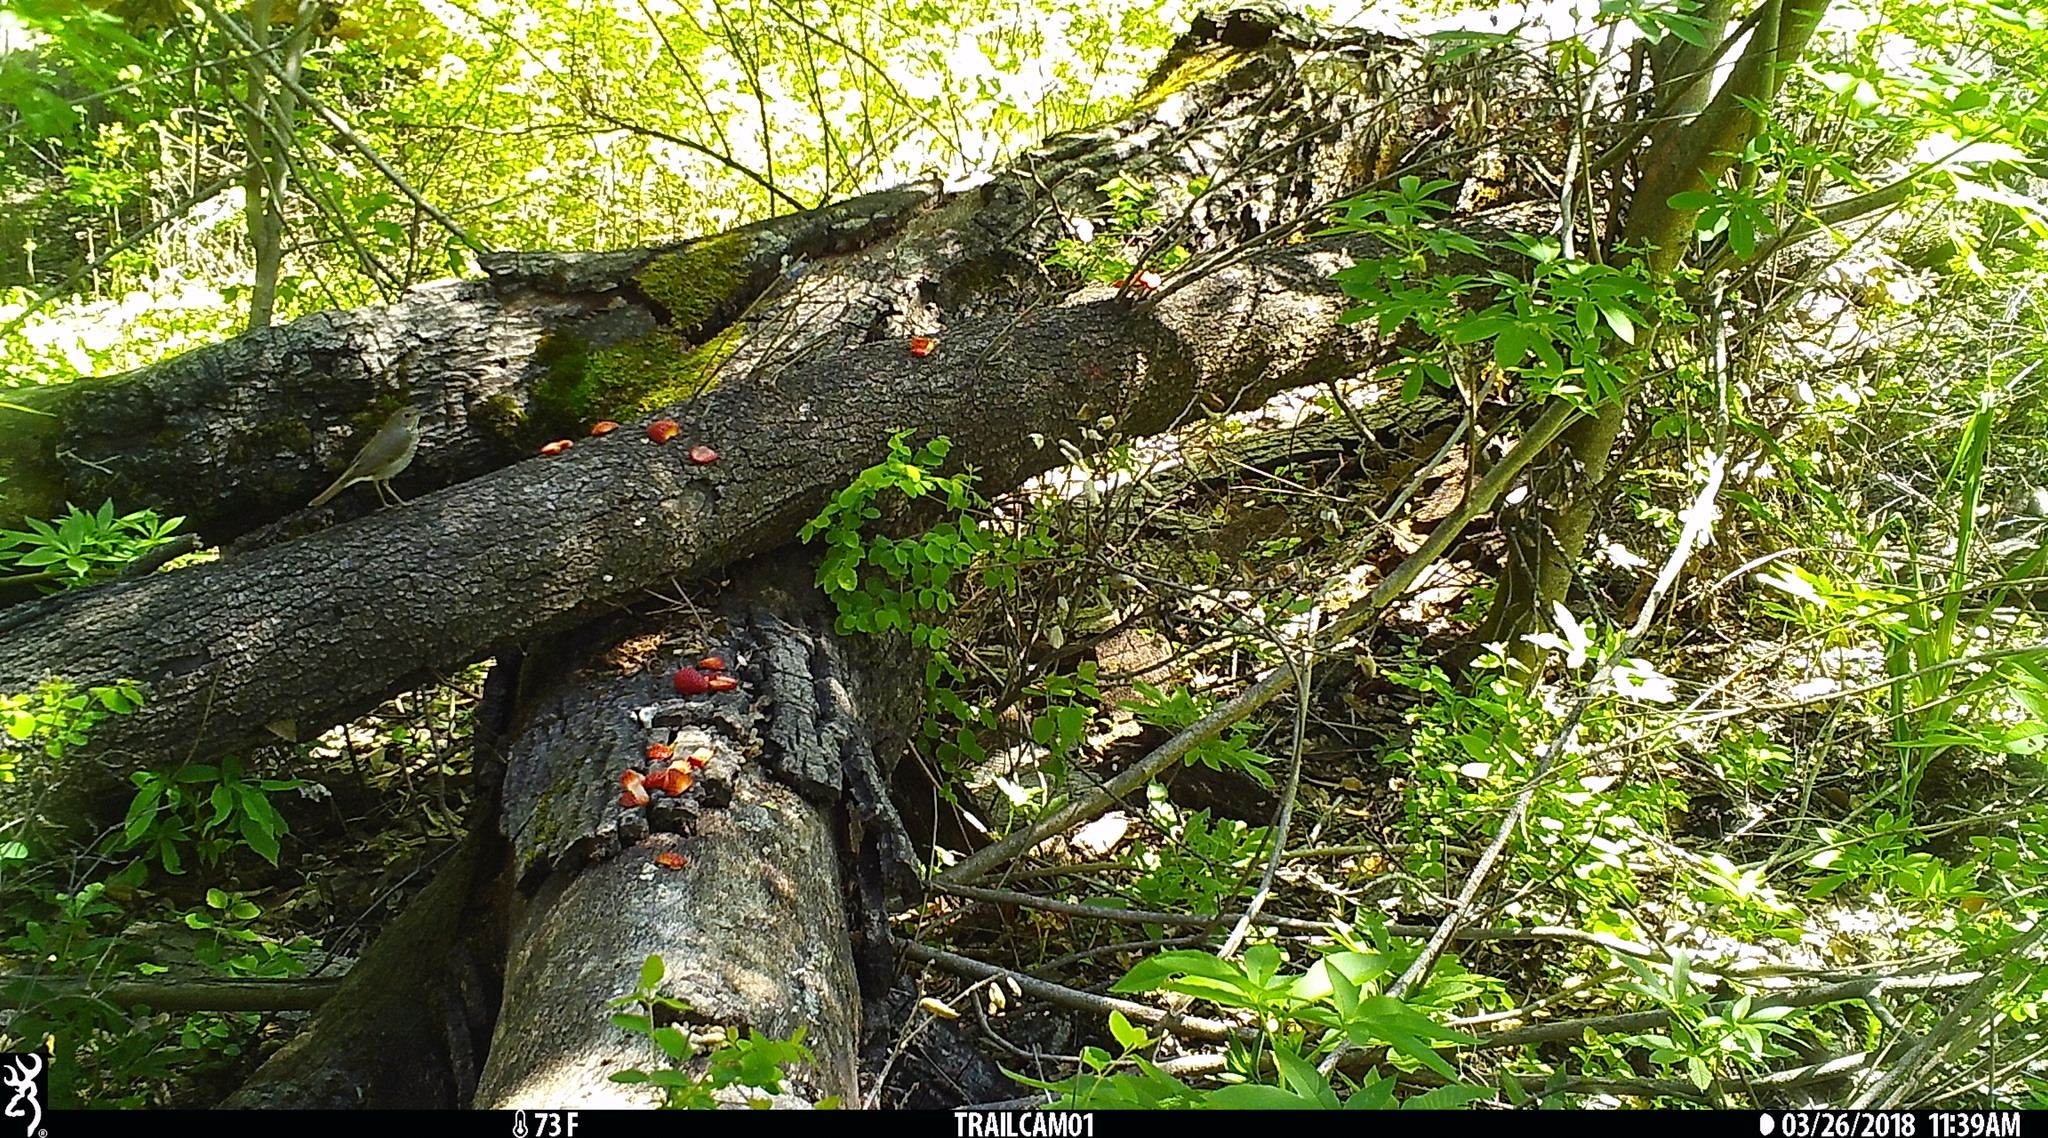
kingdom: Animalia
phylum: Chordata
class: Aves
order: Passeriformes
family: Turdidae
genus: Catharus
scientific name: Catharus guttatus
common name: Hermit thrush
